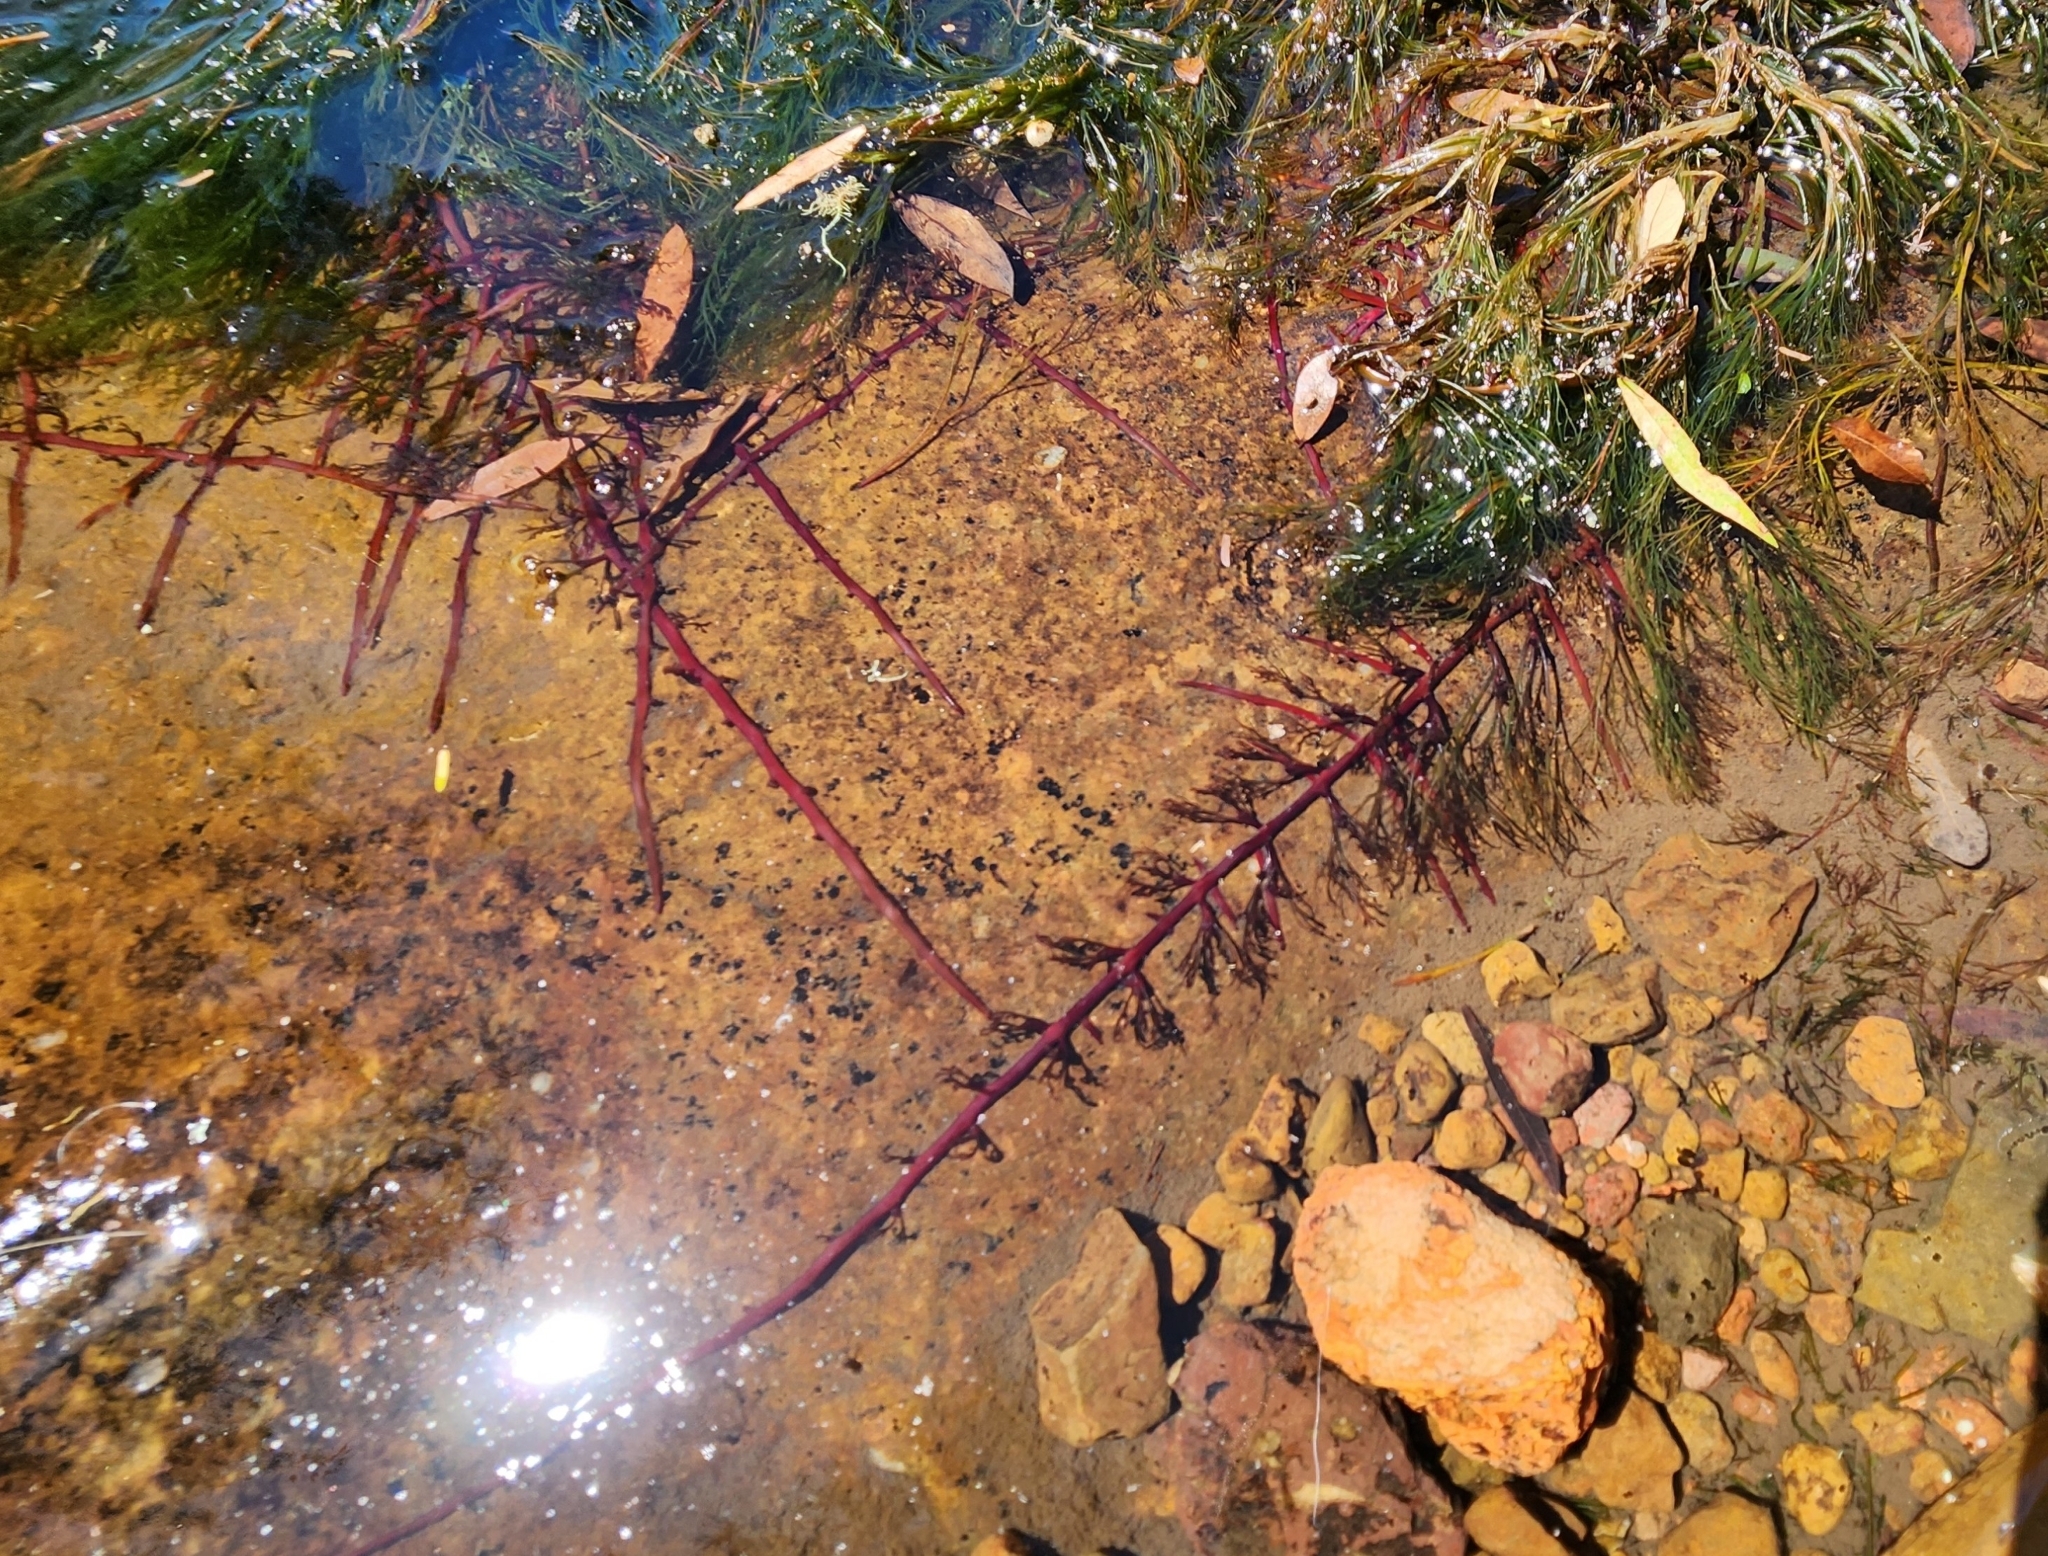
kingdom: Plantae
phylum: Tracheophyta
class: Magnoliopsida
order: Malpighiales
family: Podostemaceae
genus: Podostemum
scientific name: Podostemum comatum
